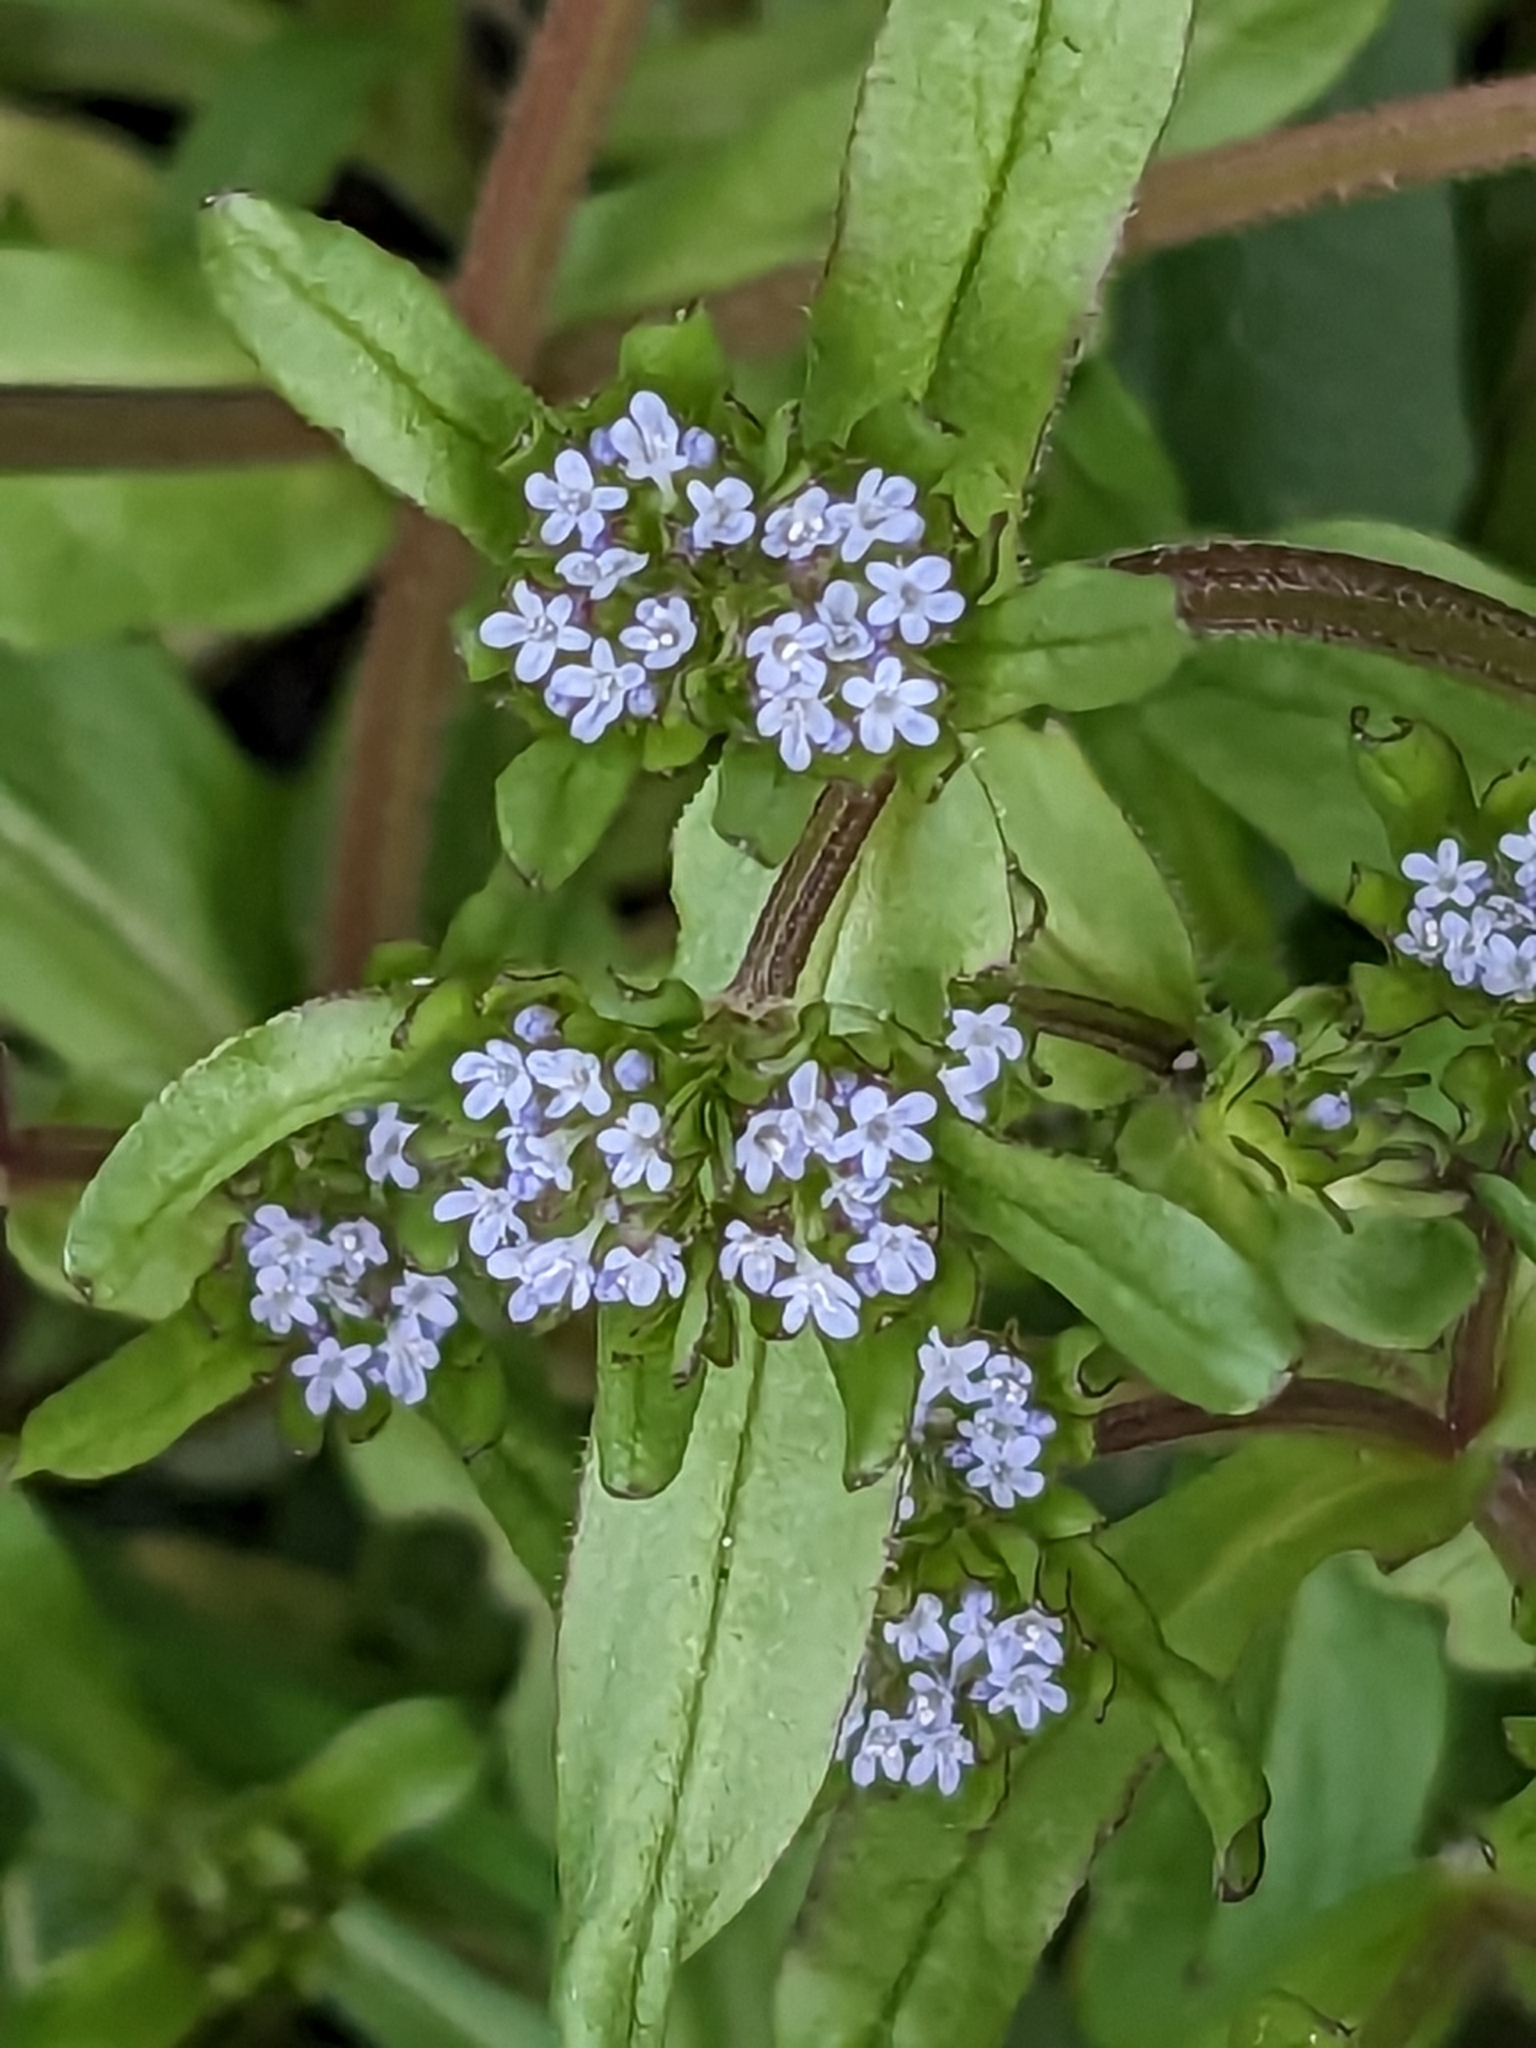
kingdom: Plantae
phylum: Tracheophyta
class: Magnoliopsida
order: Dipsacales
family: Caprifoliaceae
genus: Valerianella
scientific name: Valerianella locusta
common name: Common cornsalad
